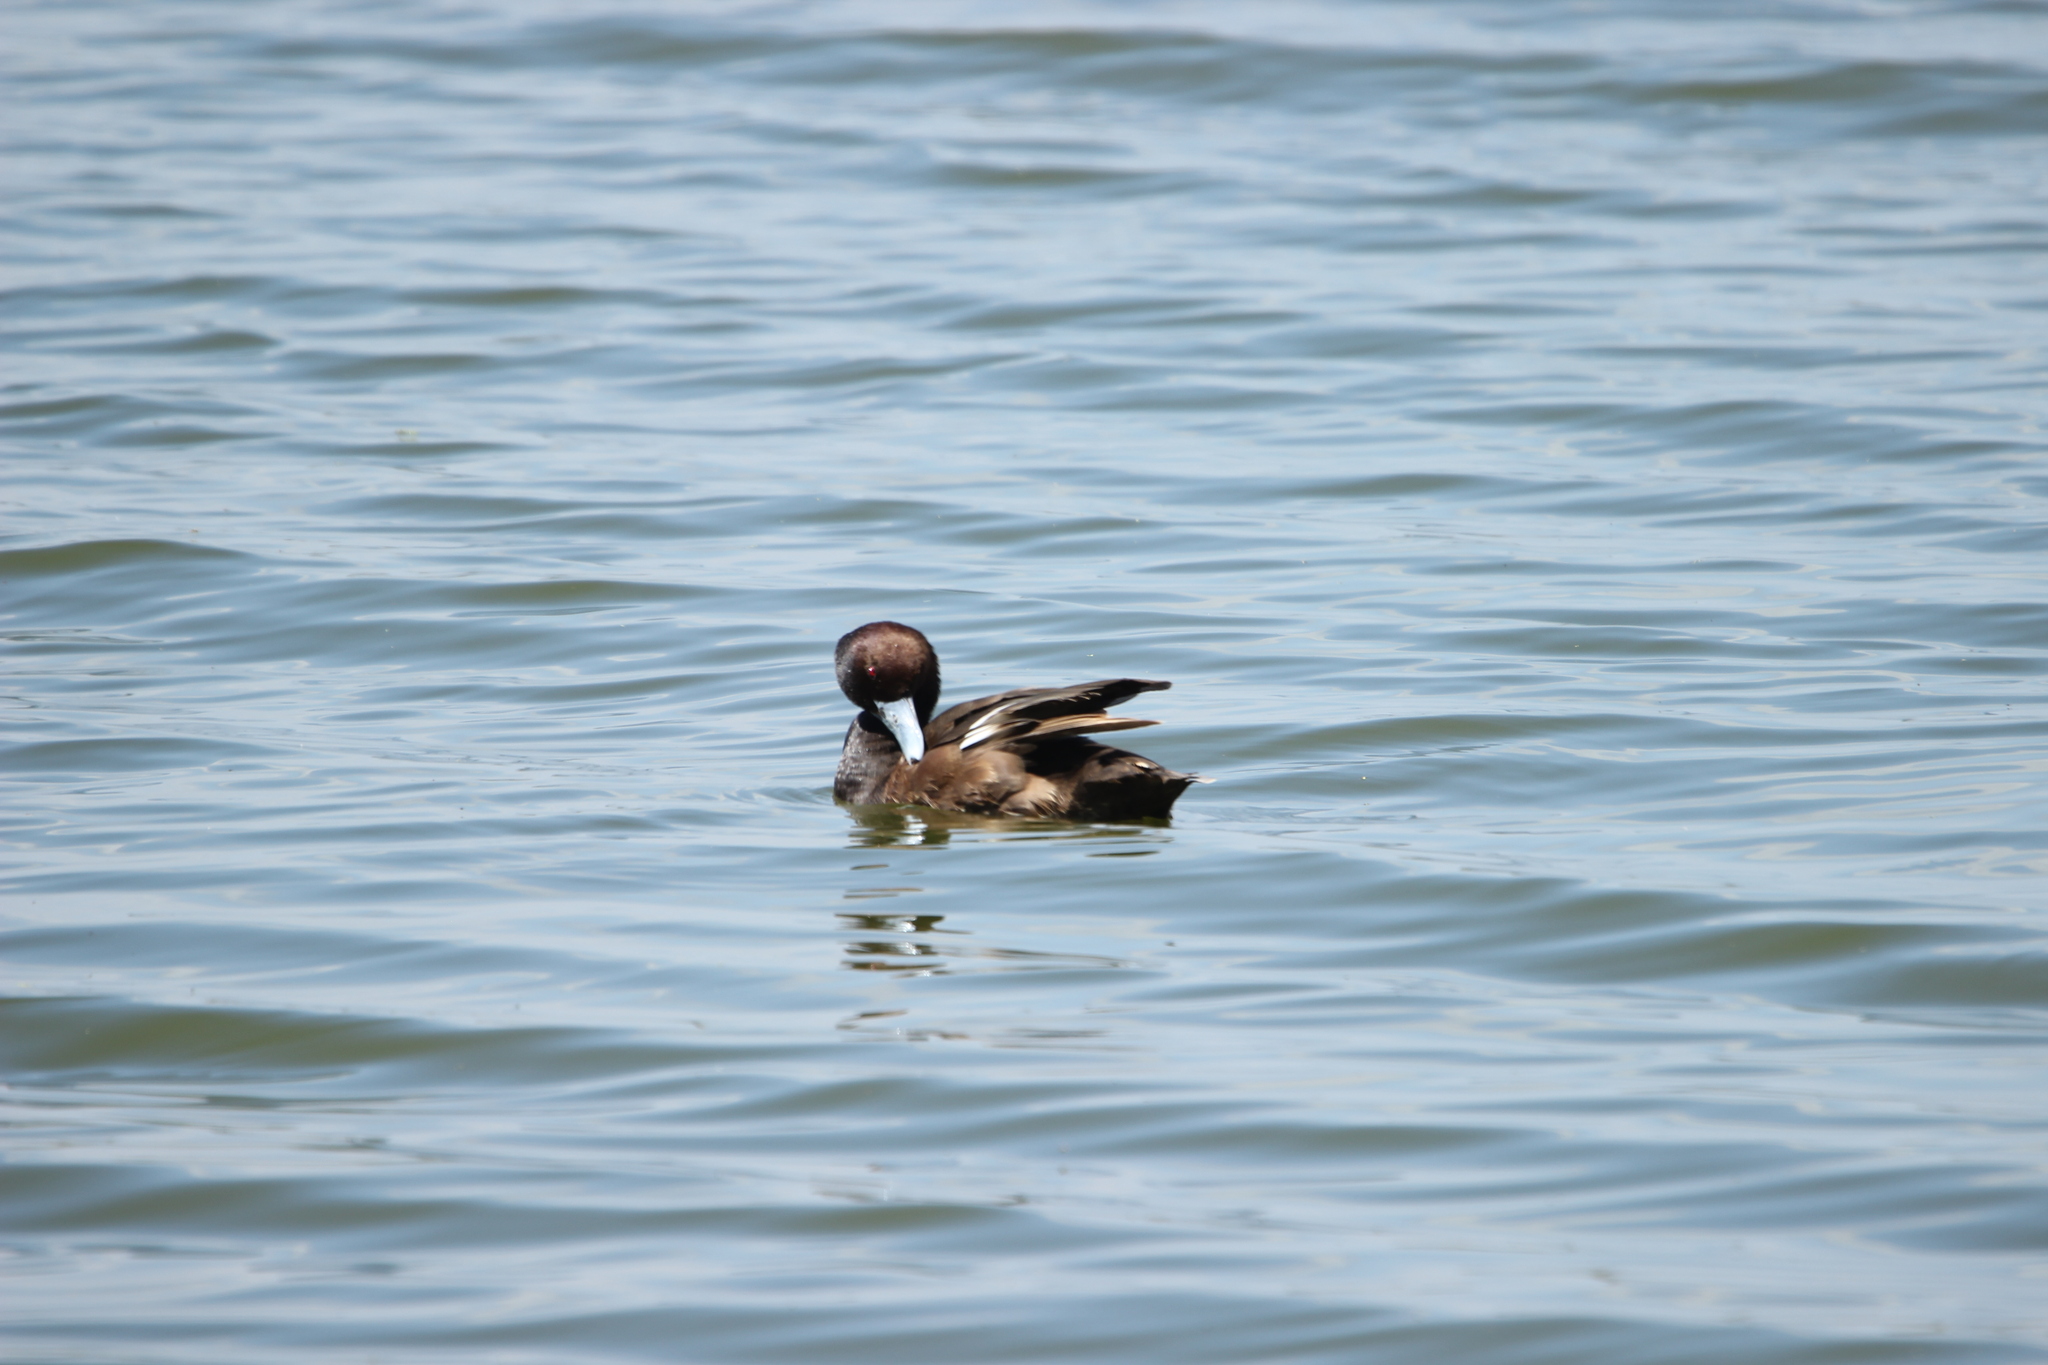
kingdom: Animalia
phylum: Chordata
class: Aves
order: Anseriformes
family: Anatidae
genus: Netta
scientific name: Netta erythrophthalma
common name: Southern pochard
